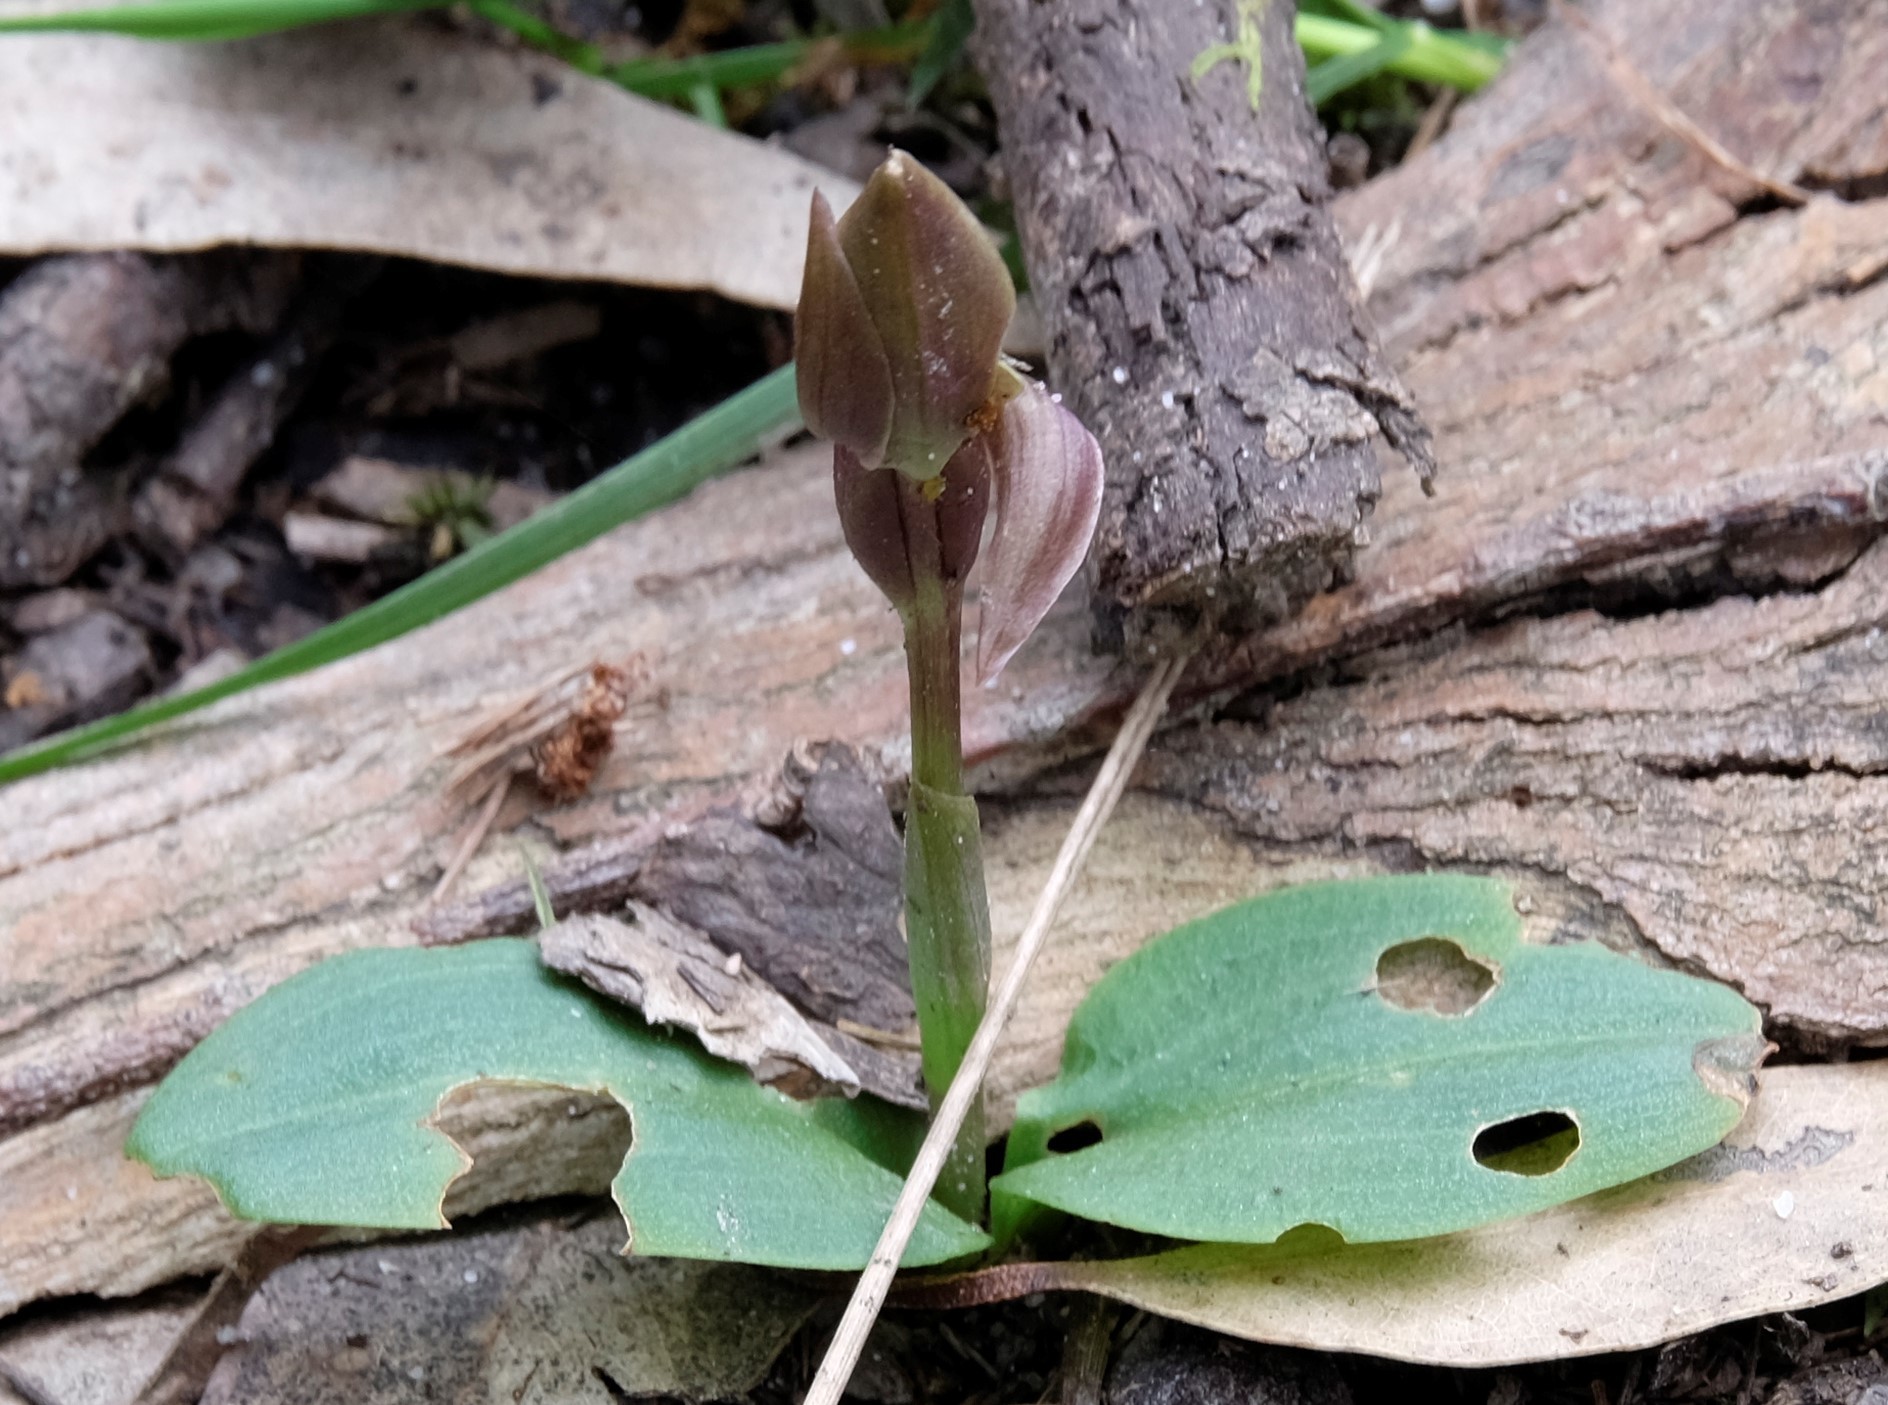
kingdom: Plantae
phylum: Tracheophyta
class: Liliopsida
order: Asparagales
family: Orchidaceae
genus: Chiloglottis
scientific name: Chiloglottis valida
